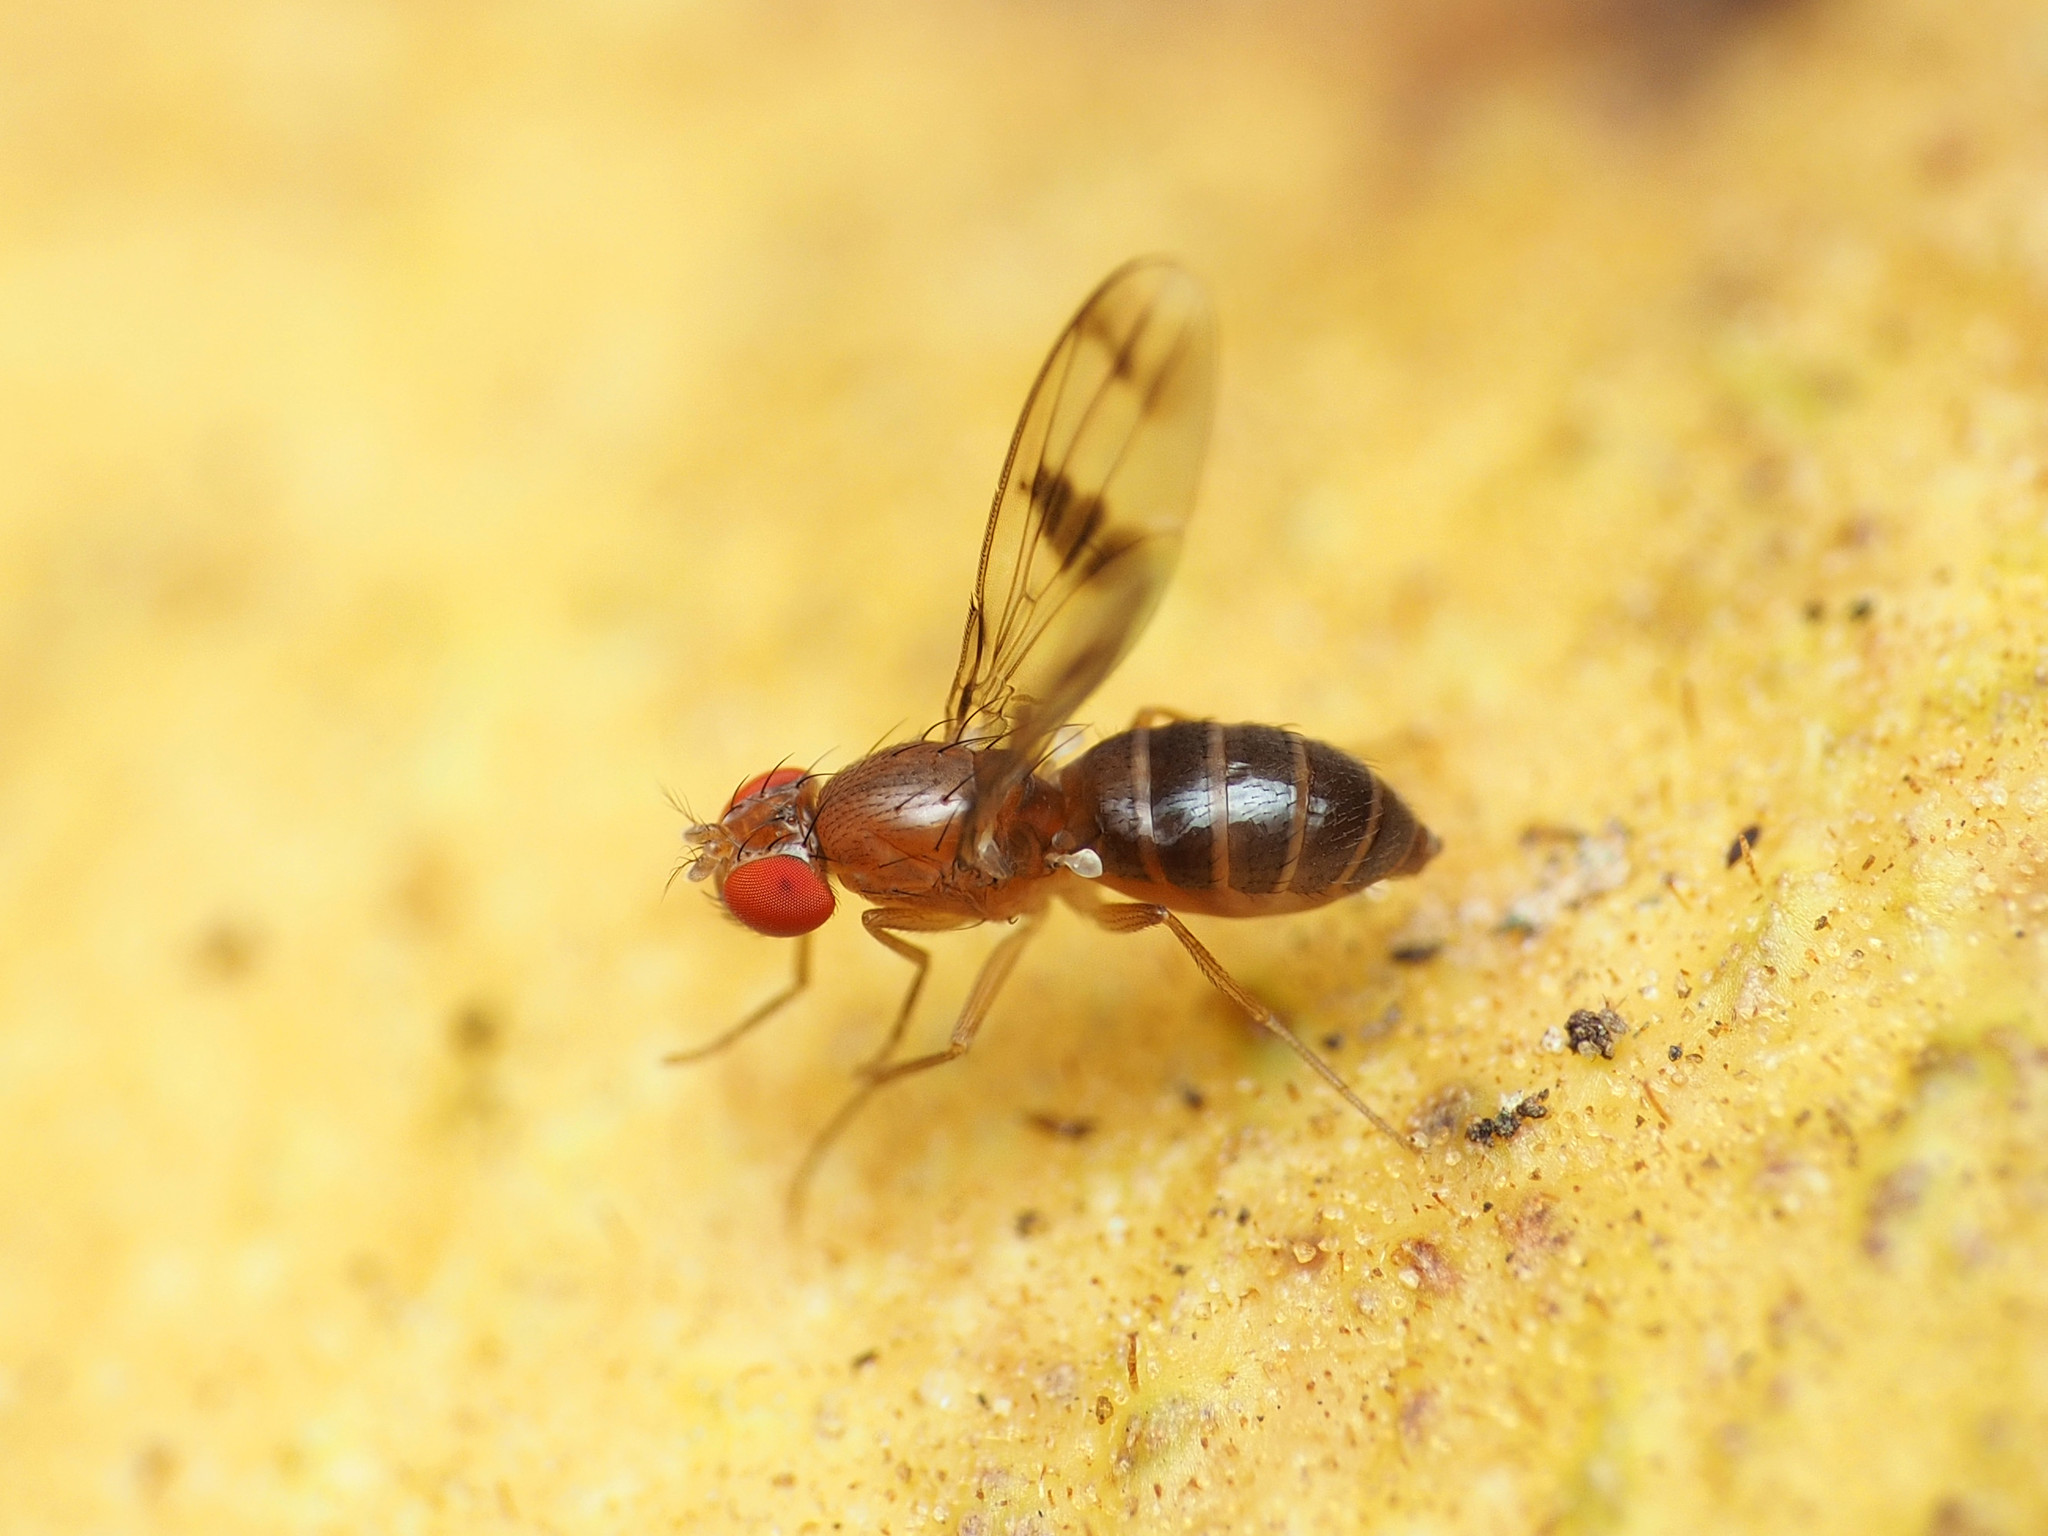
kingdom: Animalia
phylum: Arthropoda
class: Insecta
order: Diptera
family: Drosophilidae
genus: Chymomyza
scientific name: Chymomyza amoena
